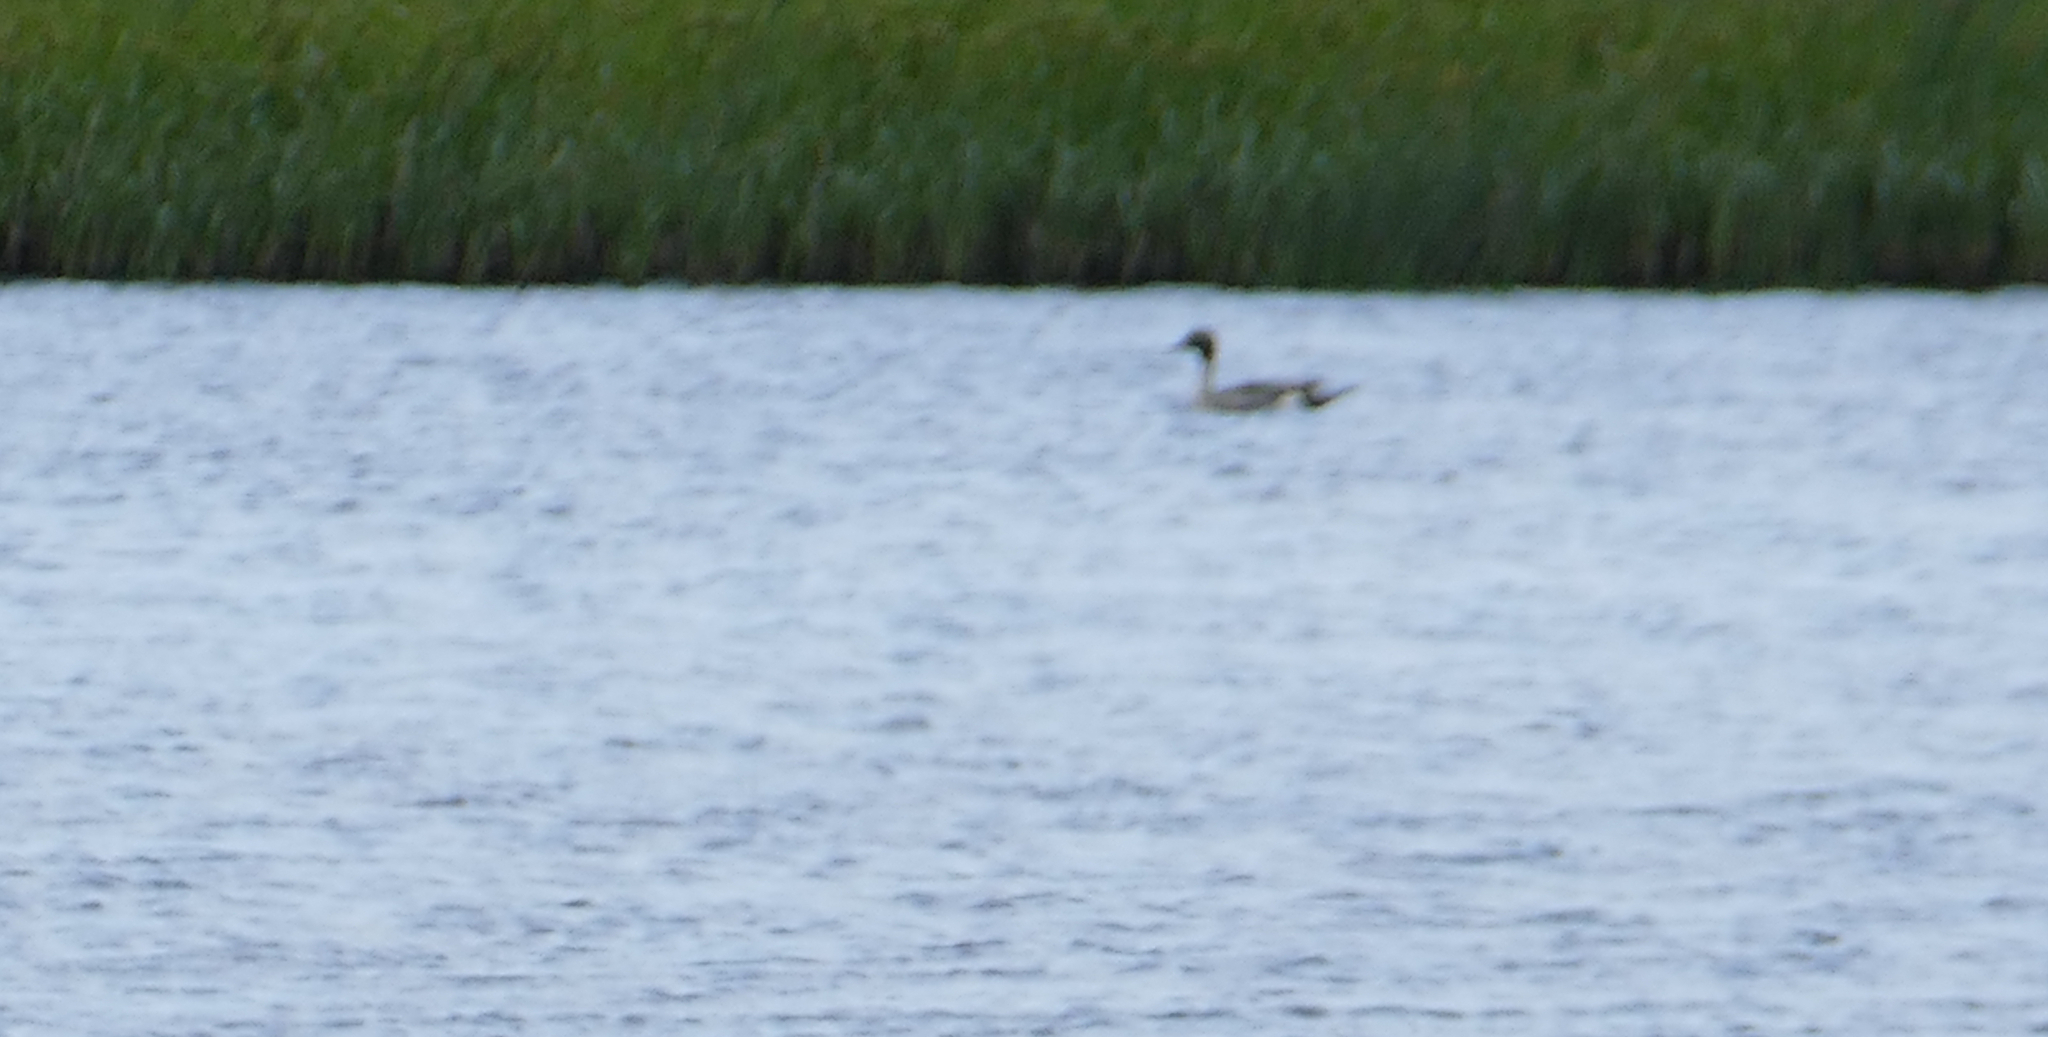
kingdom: Animalia
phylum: Chordata
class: Aves
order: Anseriformes
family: Anatidae
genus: Anas
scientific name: Anas acuta
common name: Northern pintail
